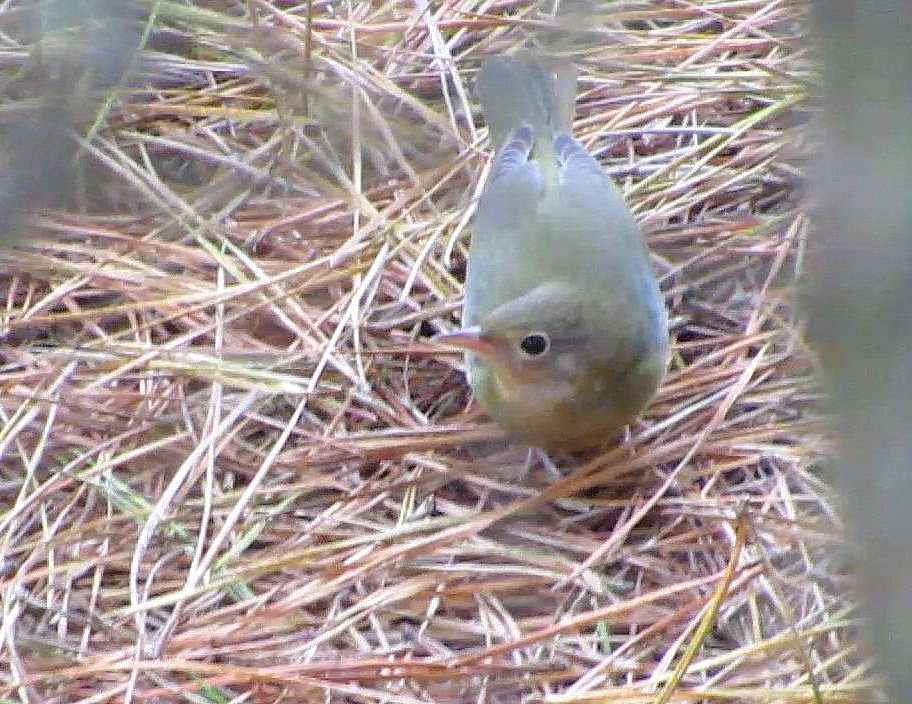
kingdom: Animalia
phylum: Chordata
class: Aves
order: Passeriformes
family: Parulidae
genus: Oporornis
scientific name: Oporornis agilis
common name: Connecticut warbler
